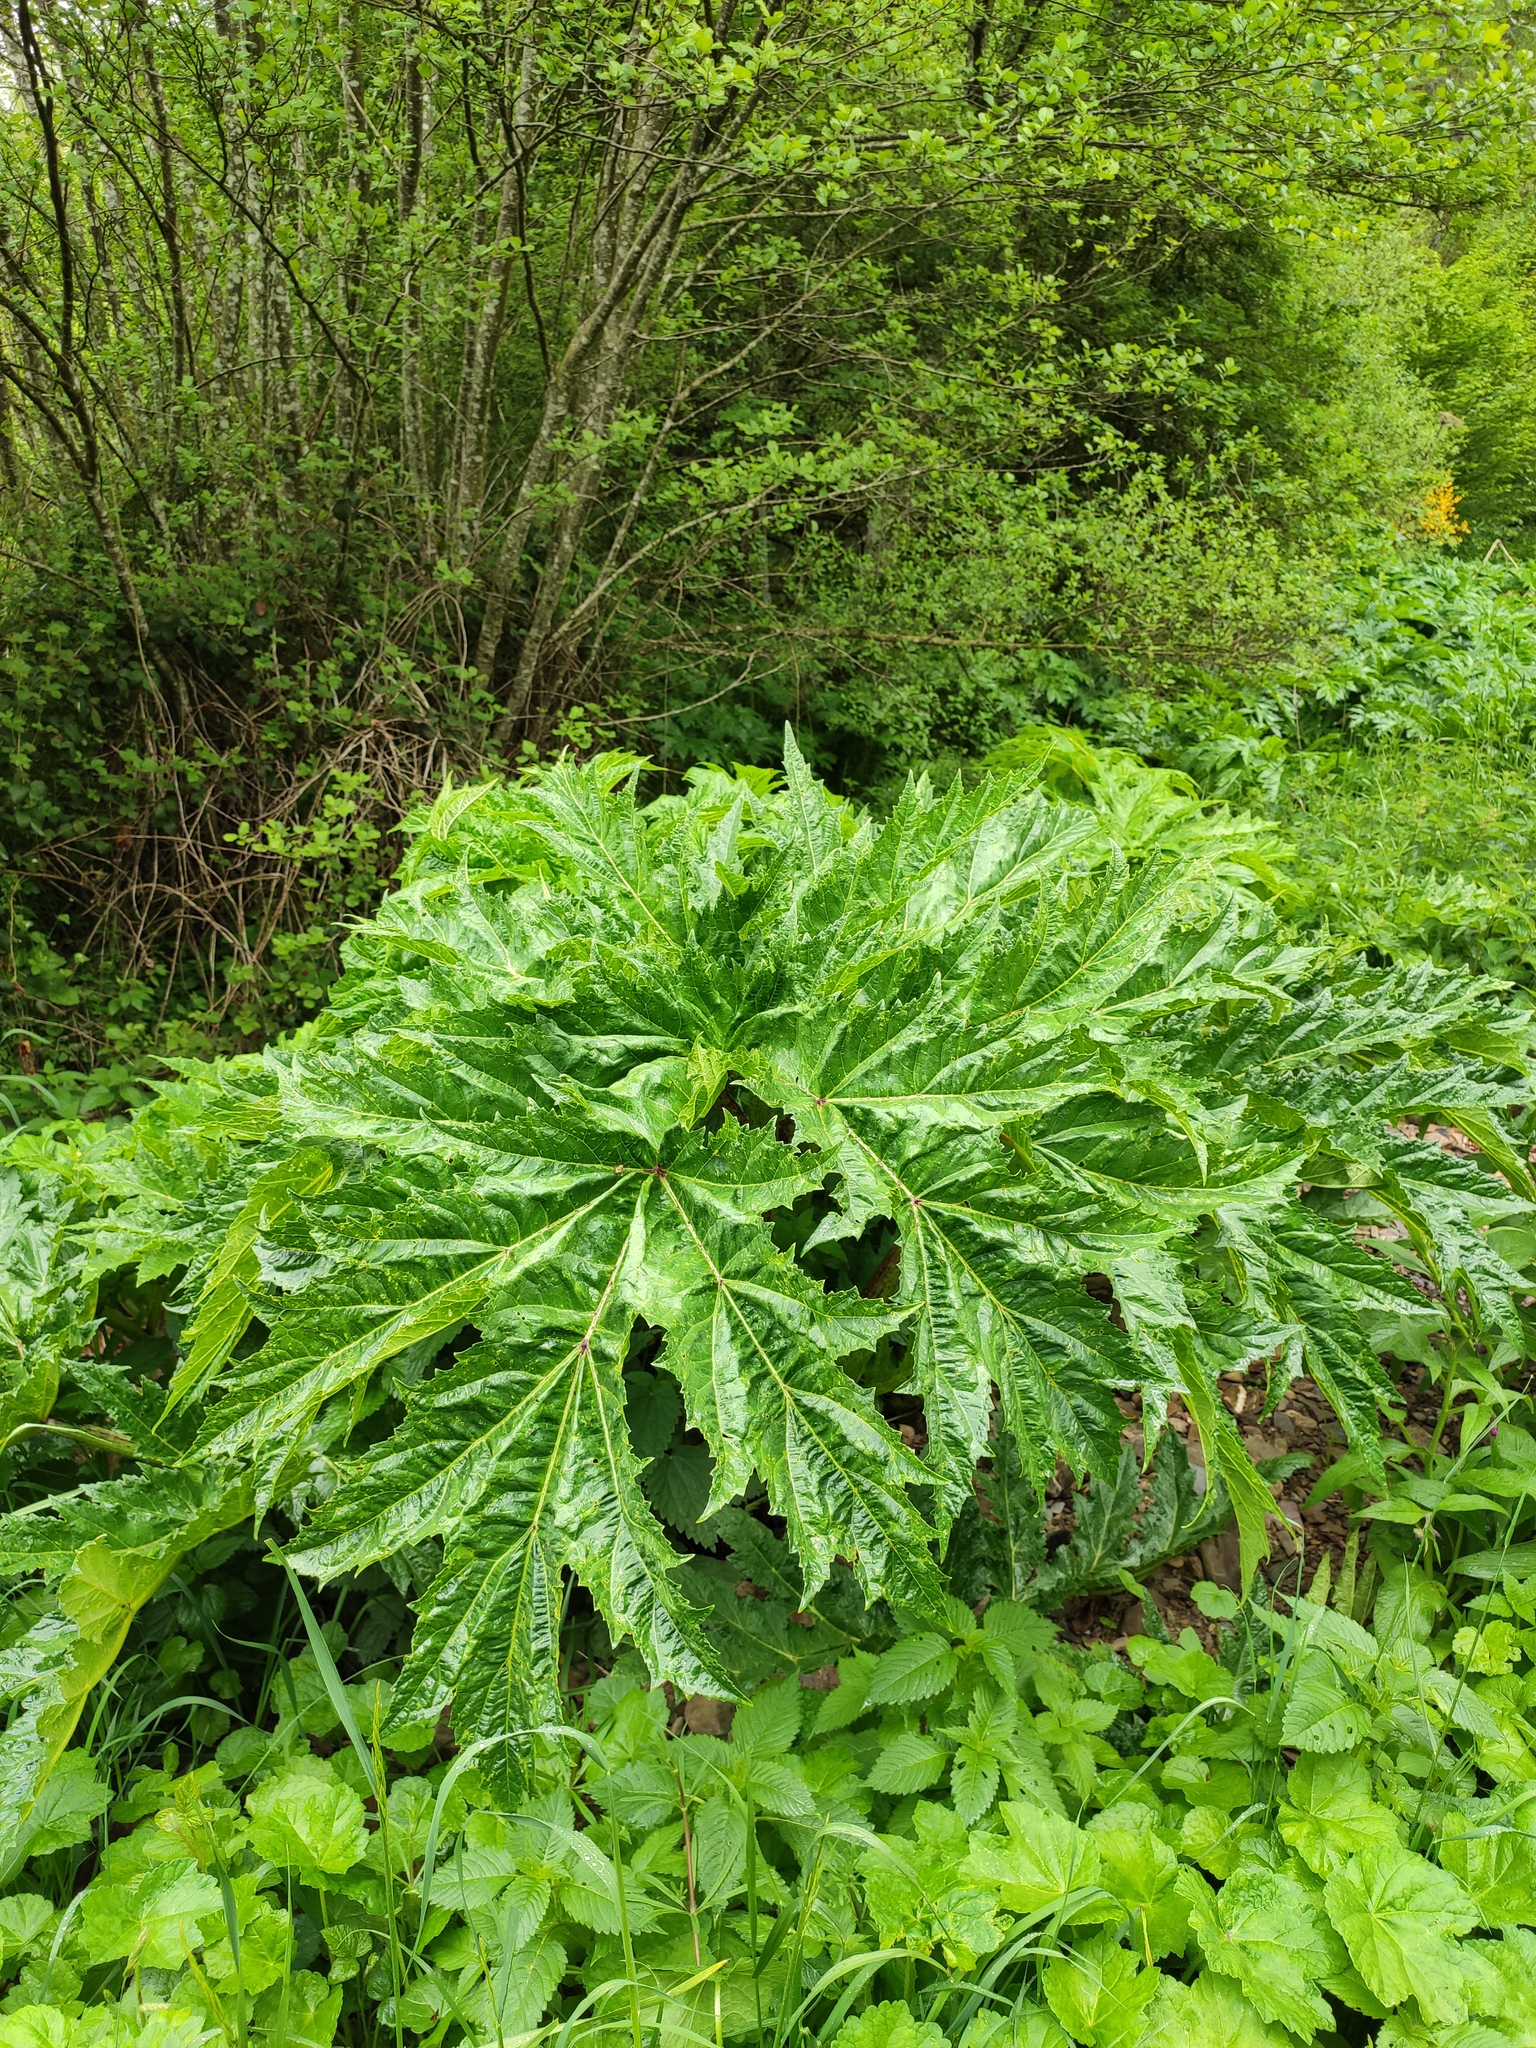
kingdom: Plantae
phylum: Tracheophyta
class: Magnoliopsida
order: Apiales
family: Apiaceae
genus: Heracleum
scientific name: Heracleum mantegazzianum
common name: Giant hogweed
